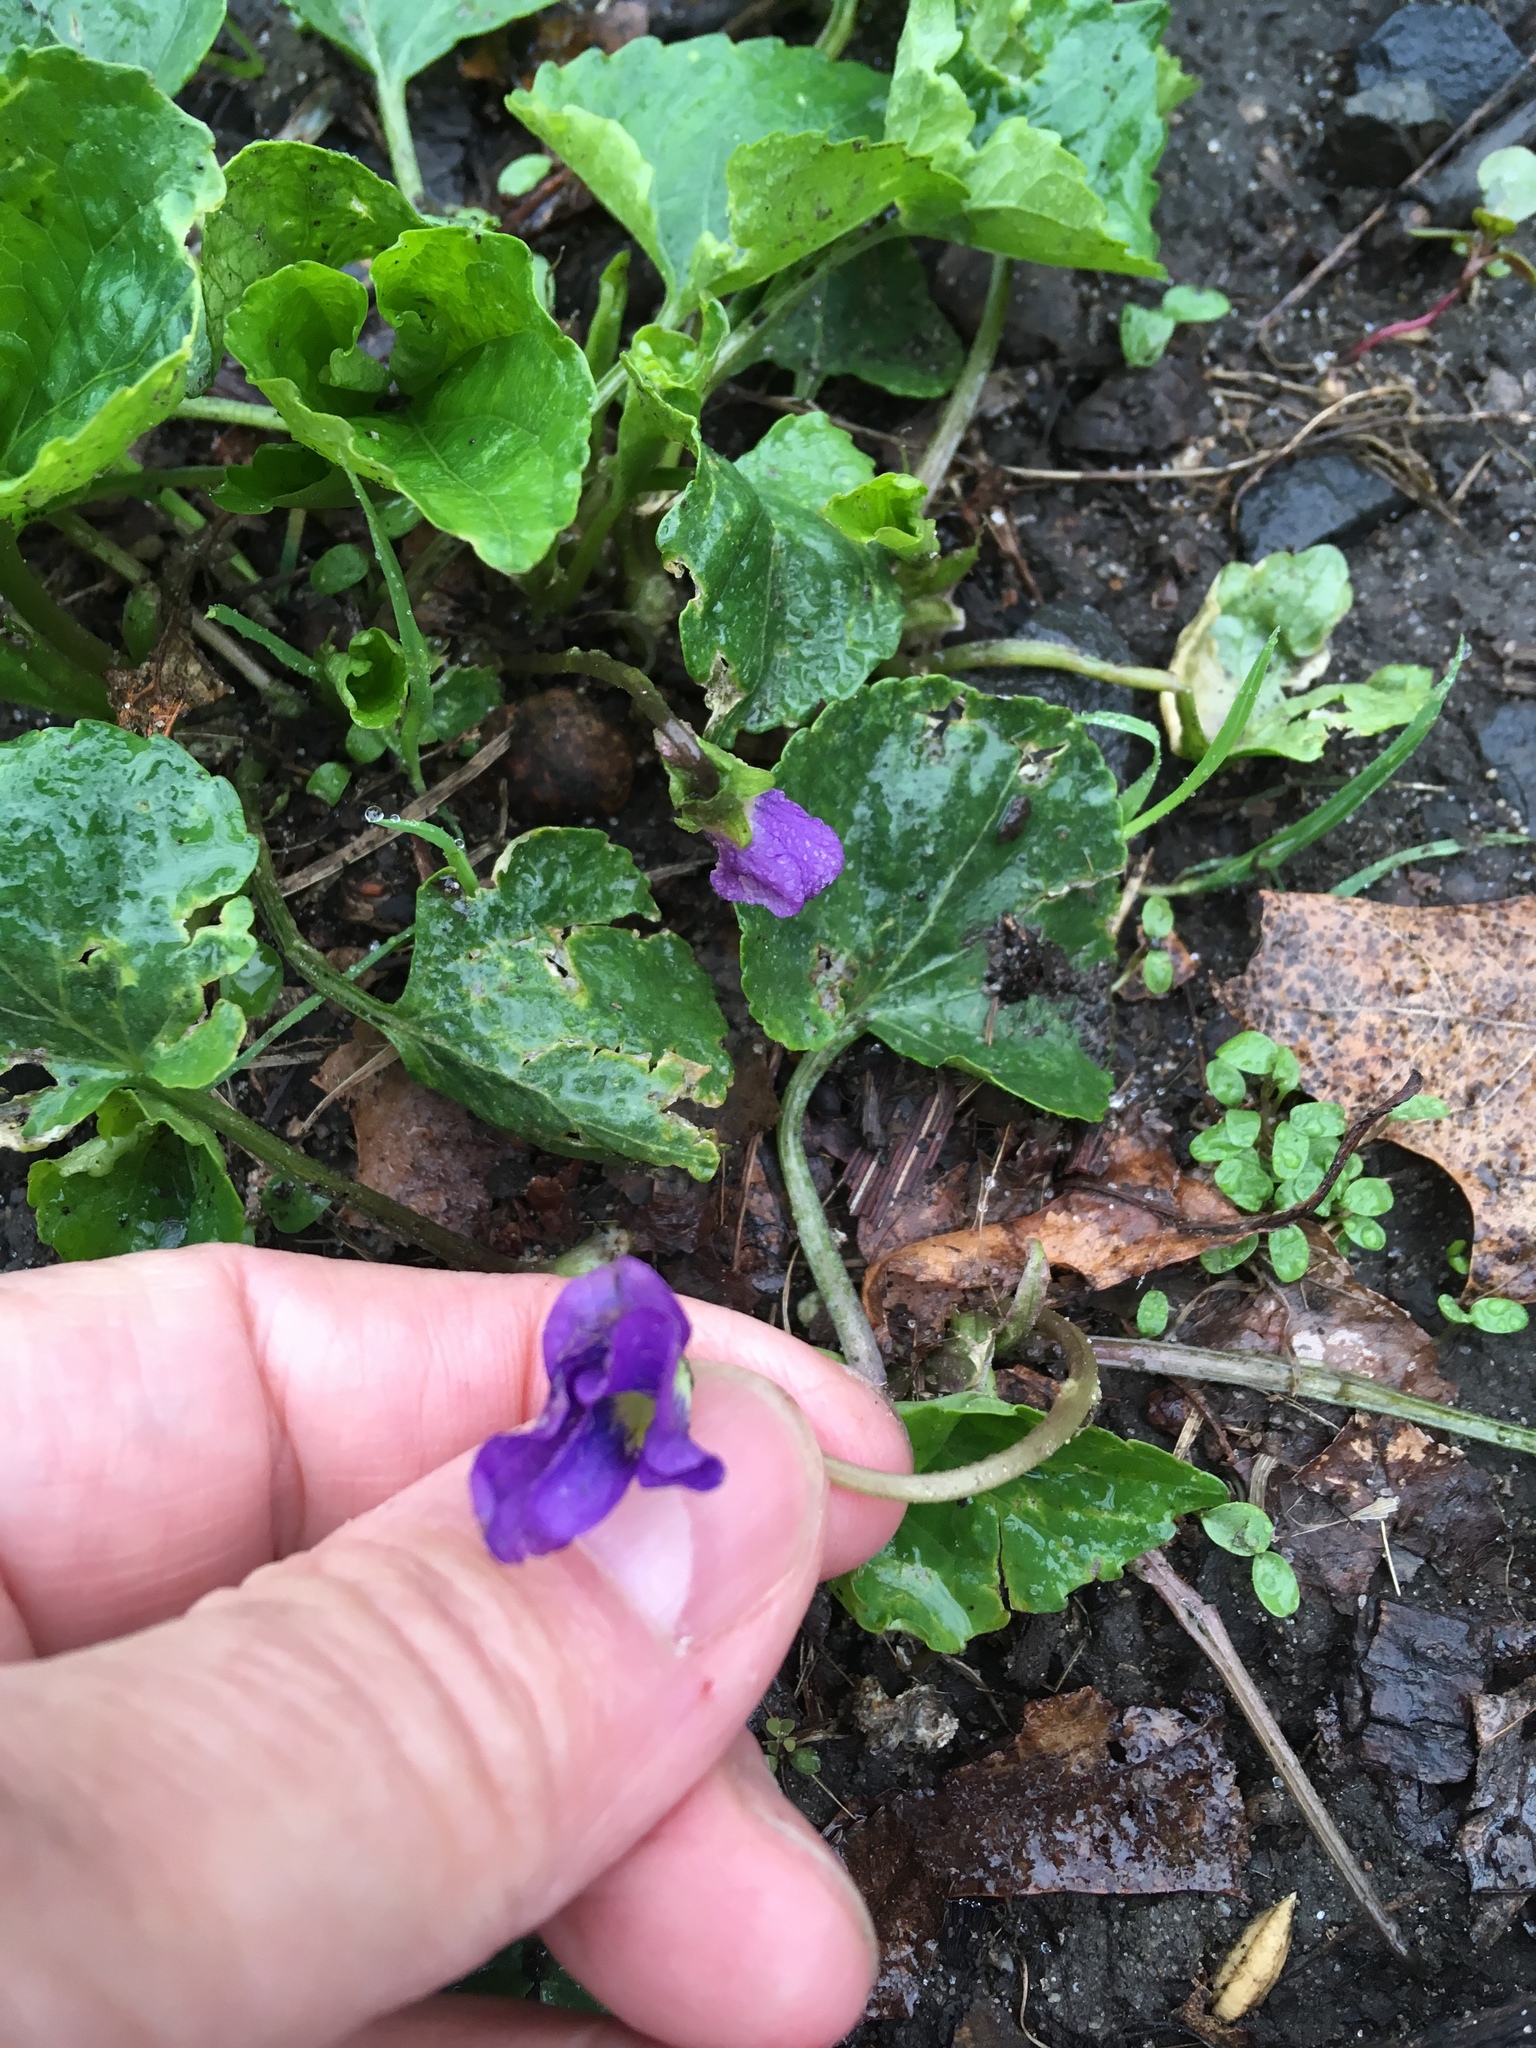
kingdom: Plantae
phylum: Tracheophyta
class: Magnoliopsida
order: Malpighiales
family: Violaceae
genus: Viola
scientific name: Viola sororia
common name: Dooryard violet
